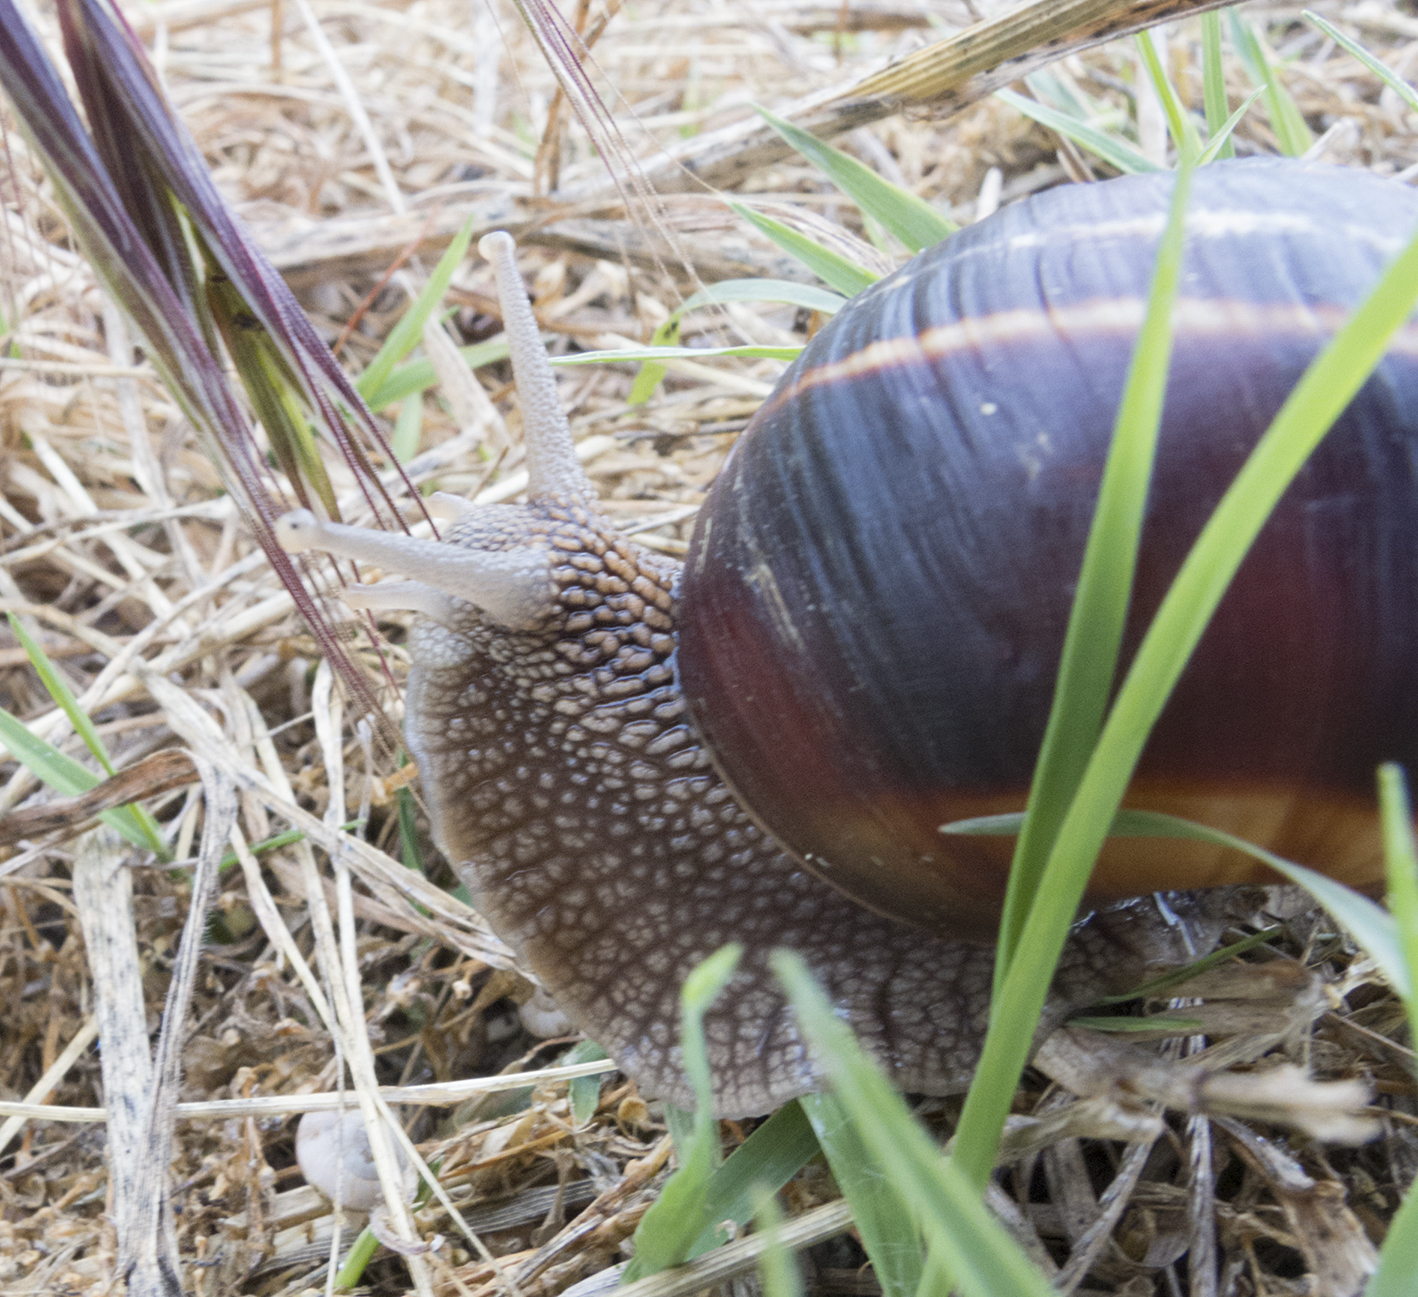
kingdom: Animalia
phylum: Mollusca
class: Gastropoda
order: Stylommatophora
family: Helicidae
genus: Helix
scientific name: Helix lucorum
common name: Turkish snail
